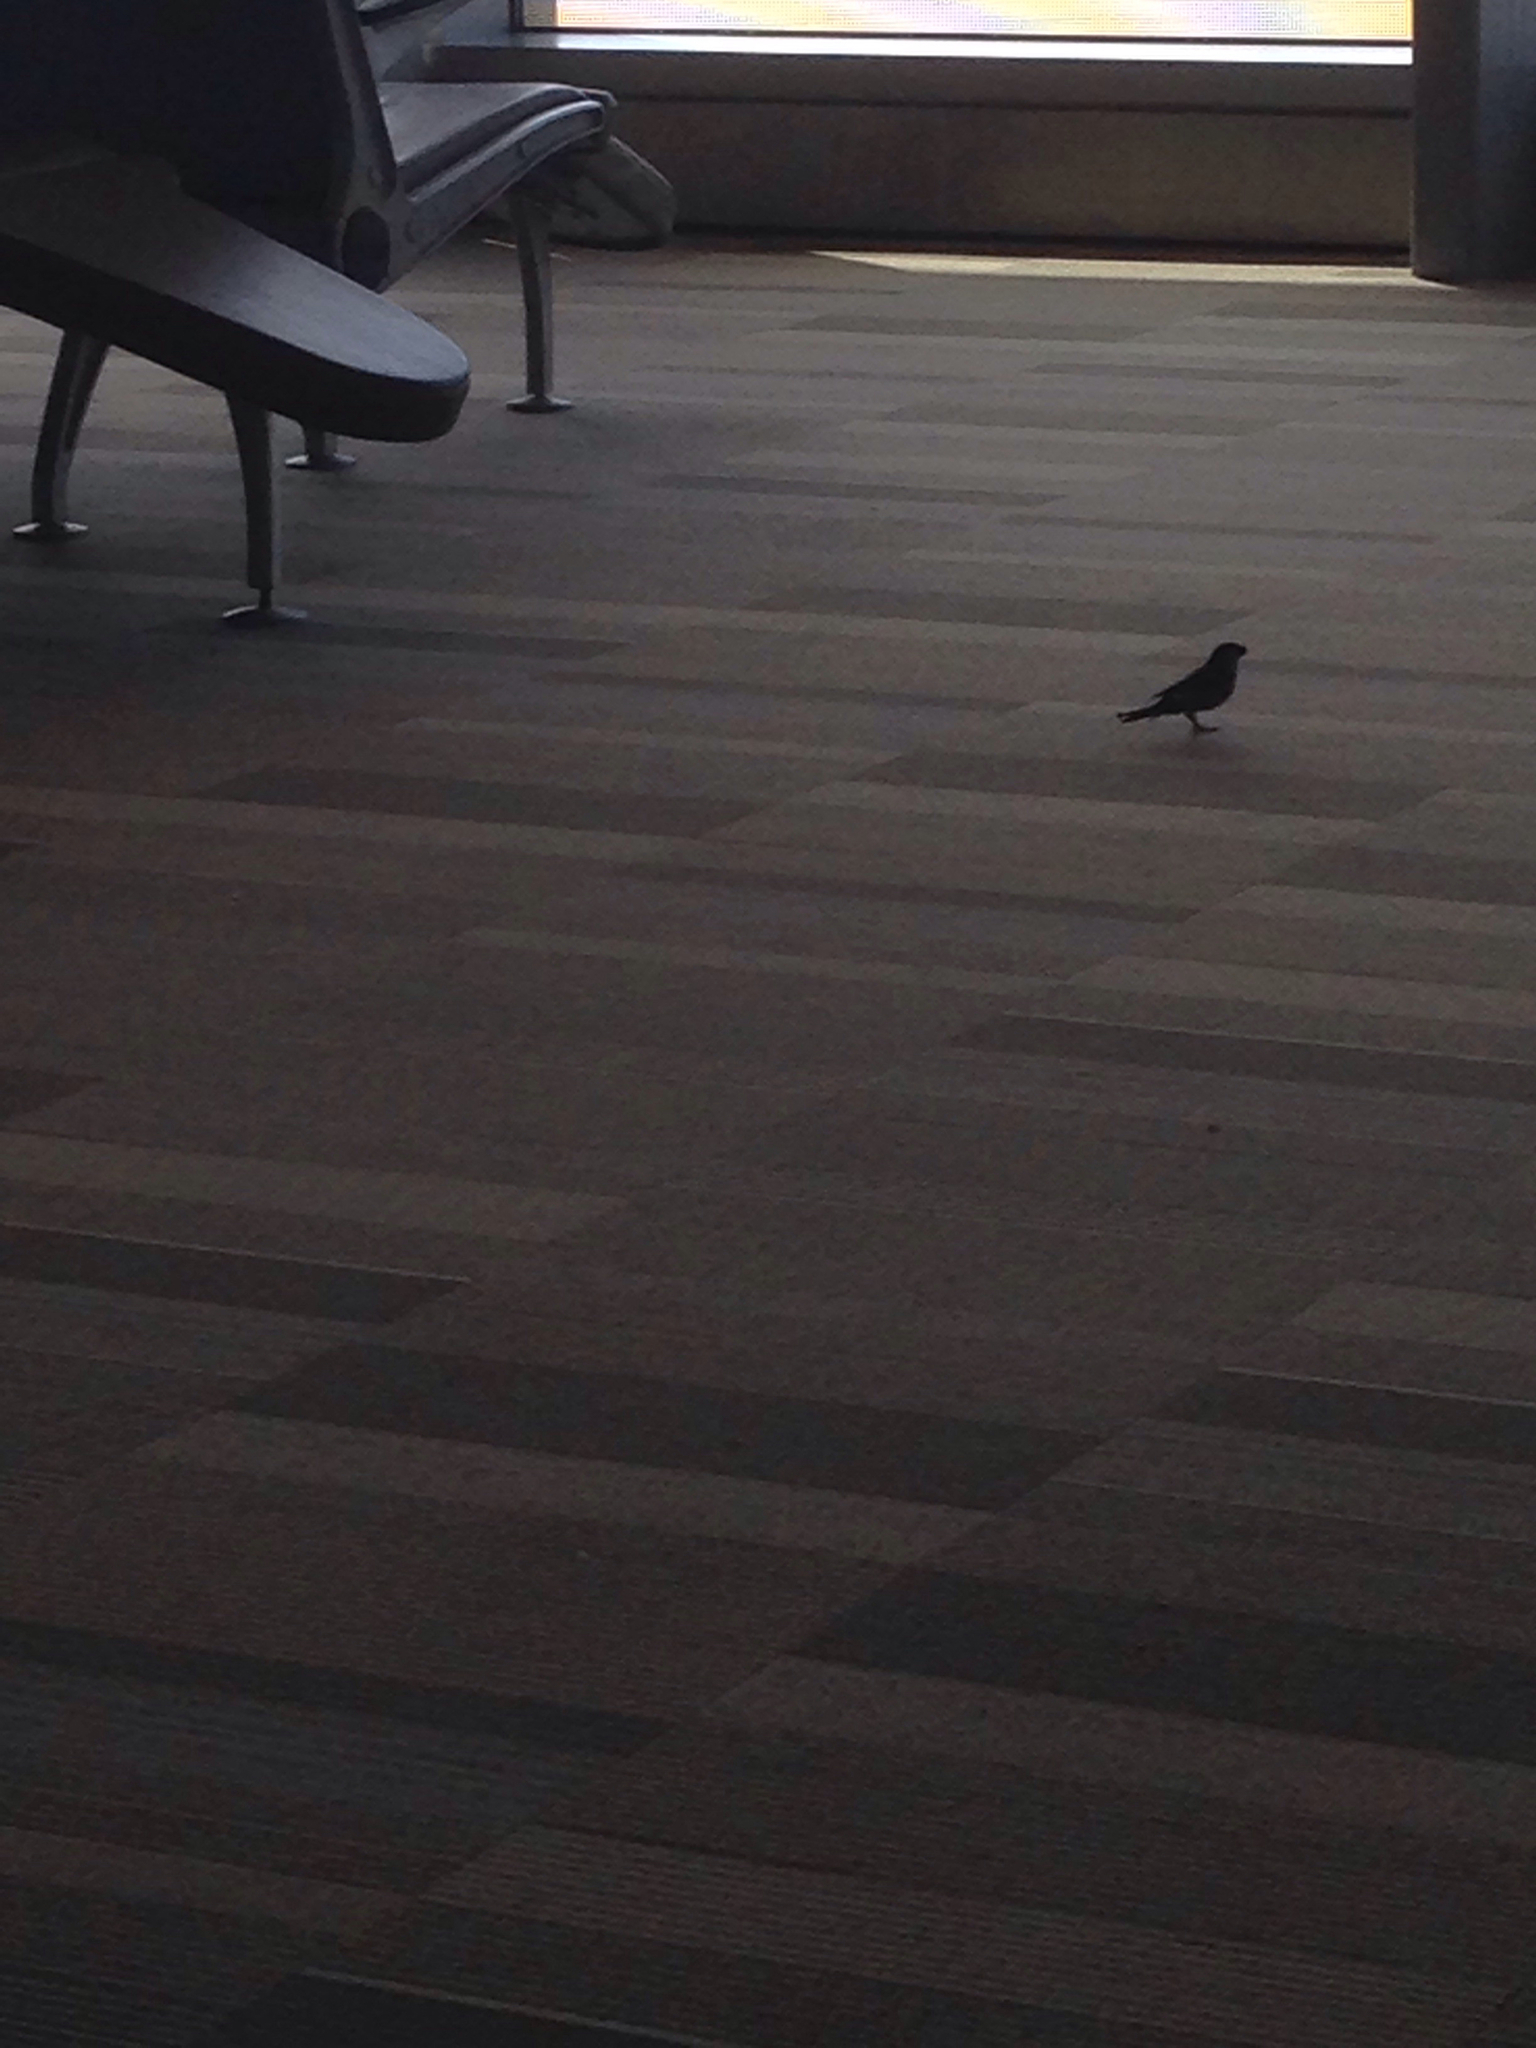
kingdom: Animalia
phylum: Chordata
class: Aves
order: Passeriformes
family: Passeridae
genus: Passer
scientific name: Passer domesticus
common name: House sparrow
